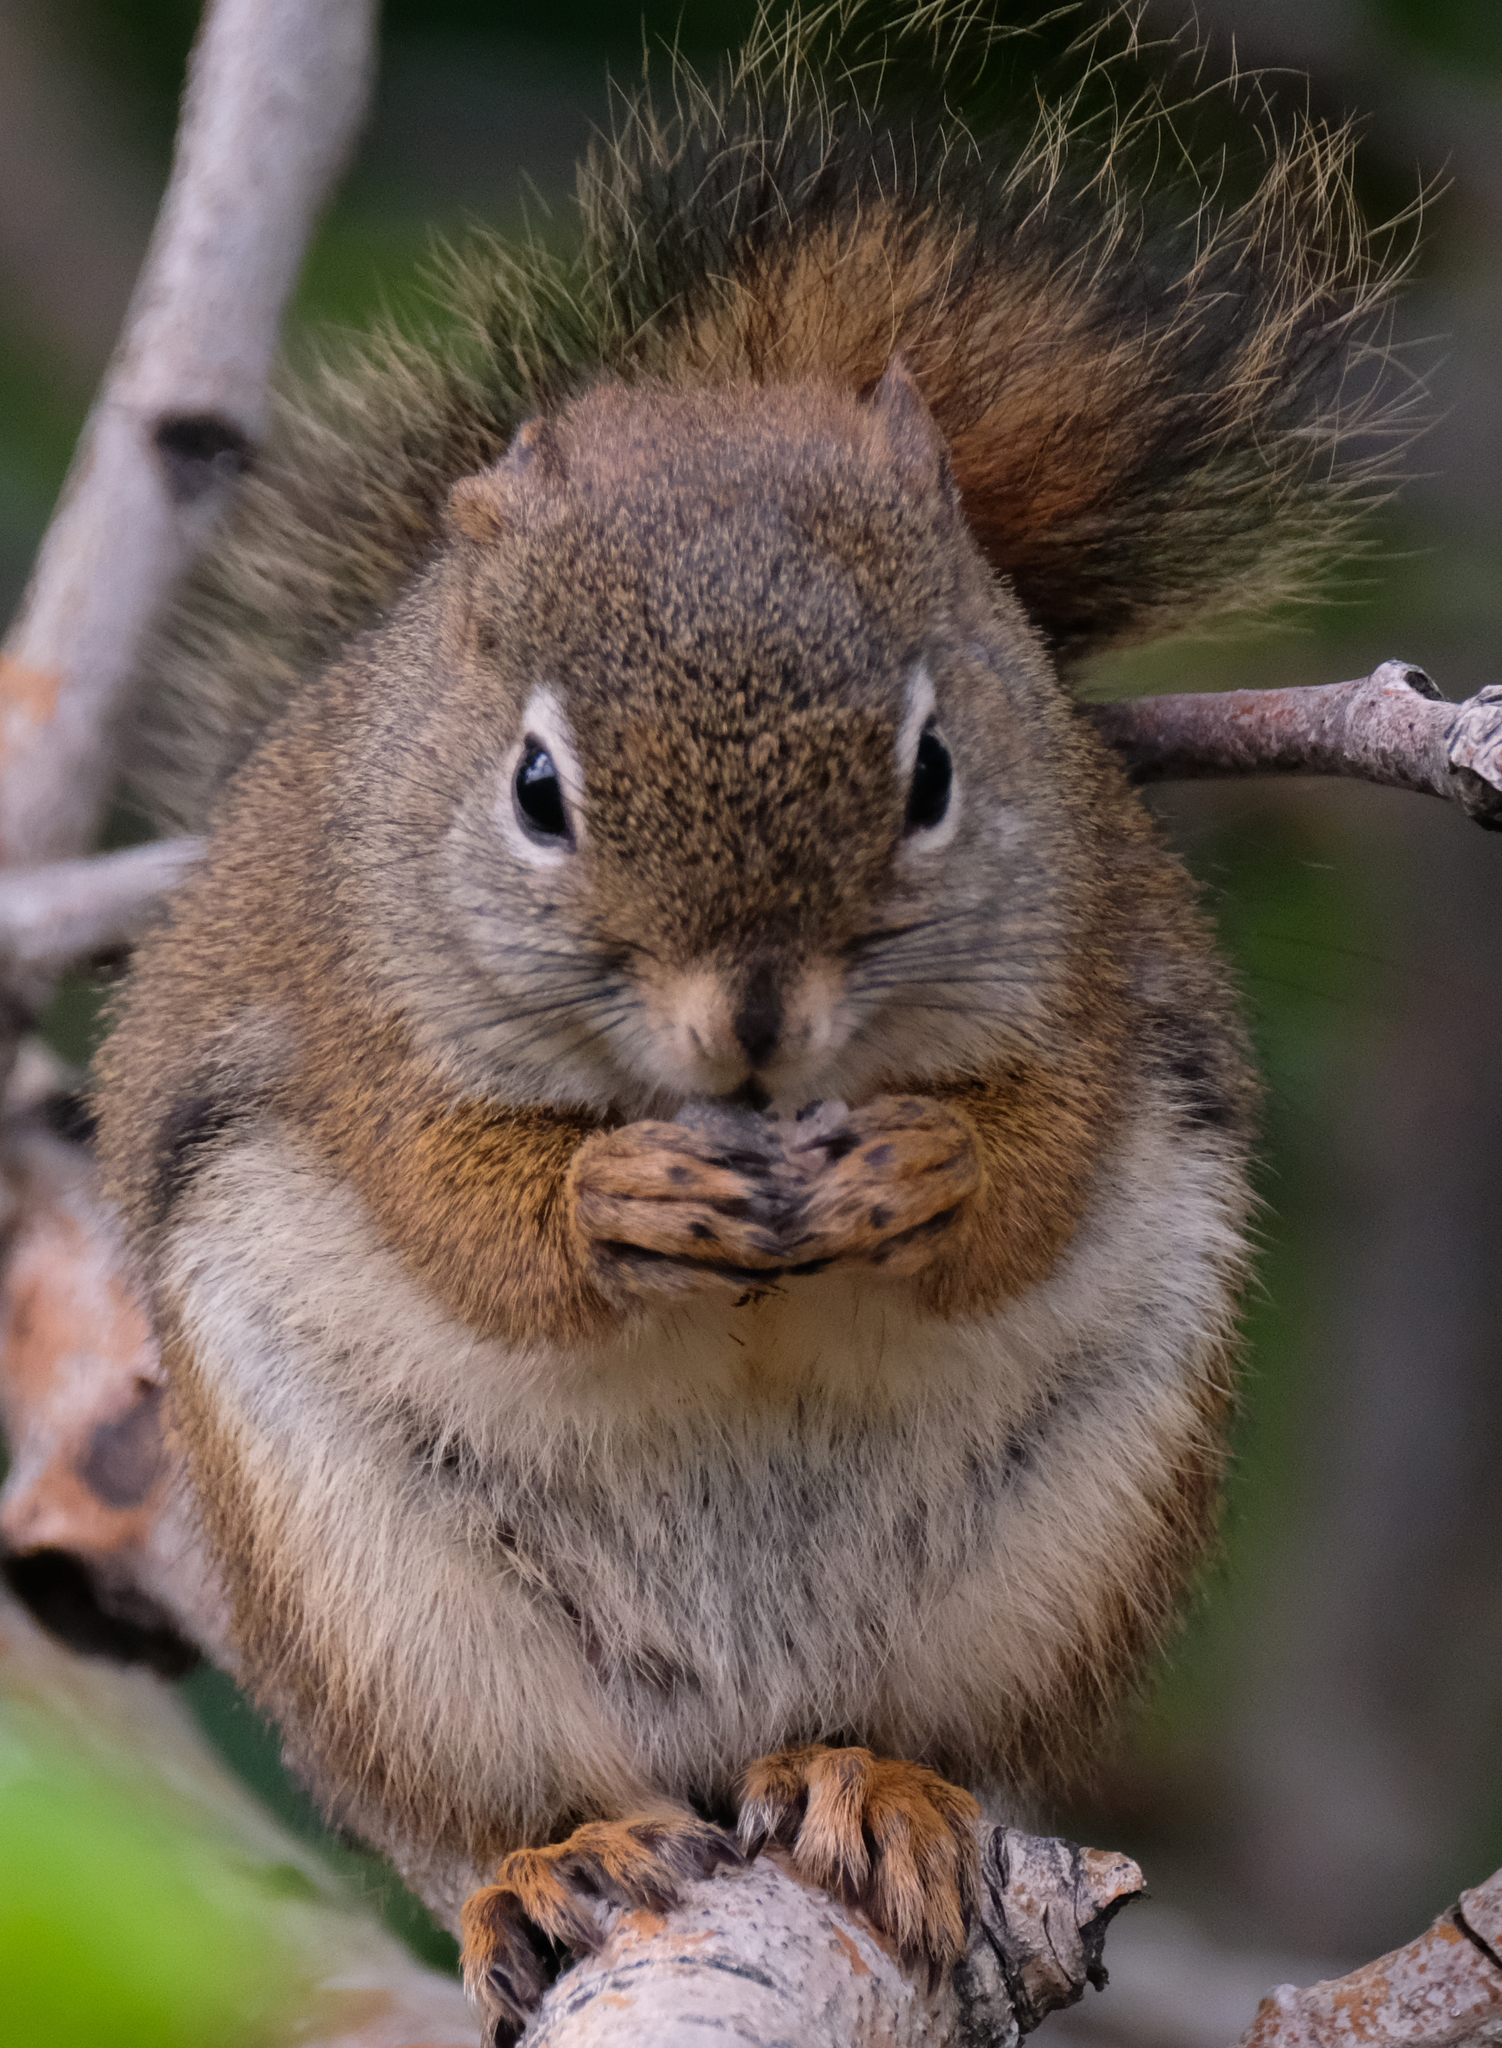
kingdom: Animalia
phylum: Chordata
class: Mammalia
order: Rodentia
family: Sciuridae
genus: Tamiasciurus
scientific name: Tamiasciurus hudsonicus
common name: Red squirrel
